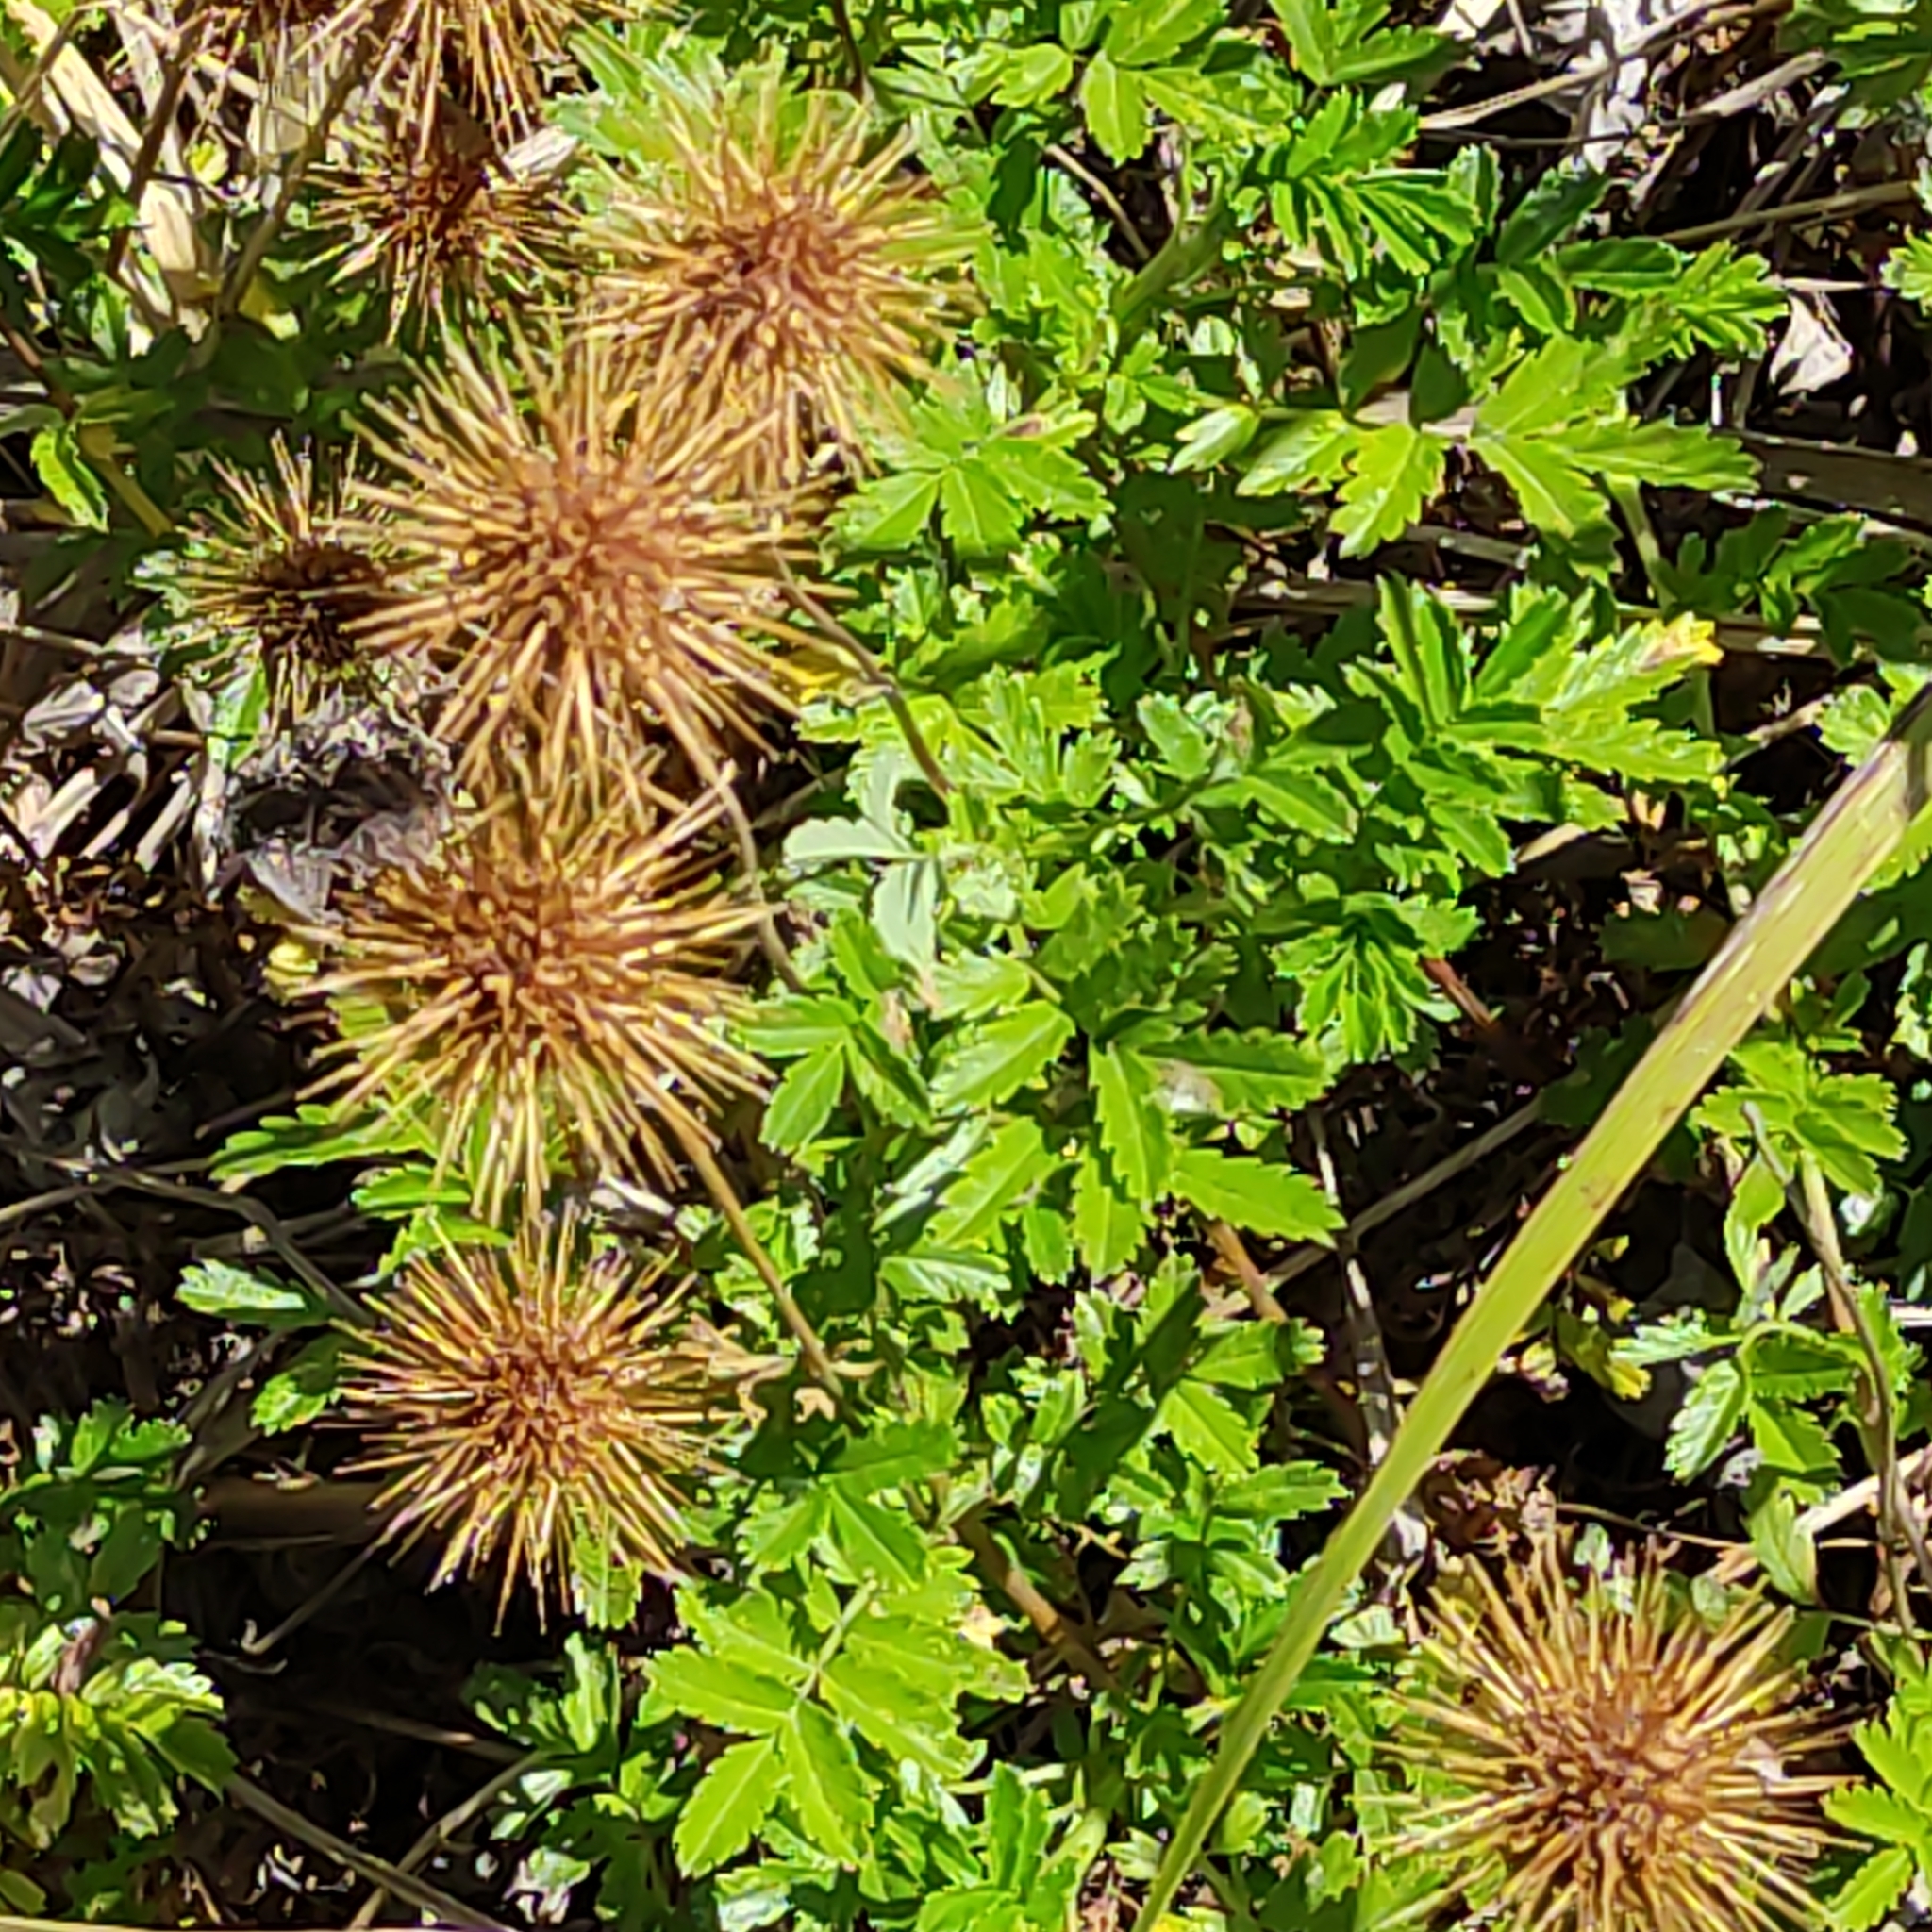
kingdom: Plantae
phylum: Tracheophyta
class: Magnoliopsida
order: Rosales
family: Rosaceae
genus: Acaena
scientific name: Acaena novae-zelandiae
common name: Pirri-pirri-bur
